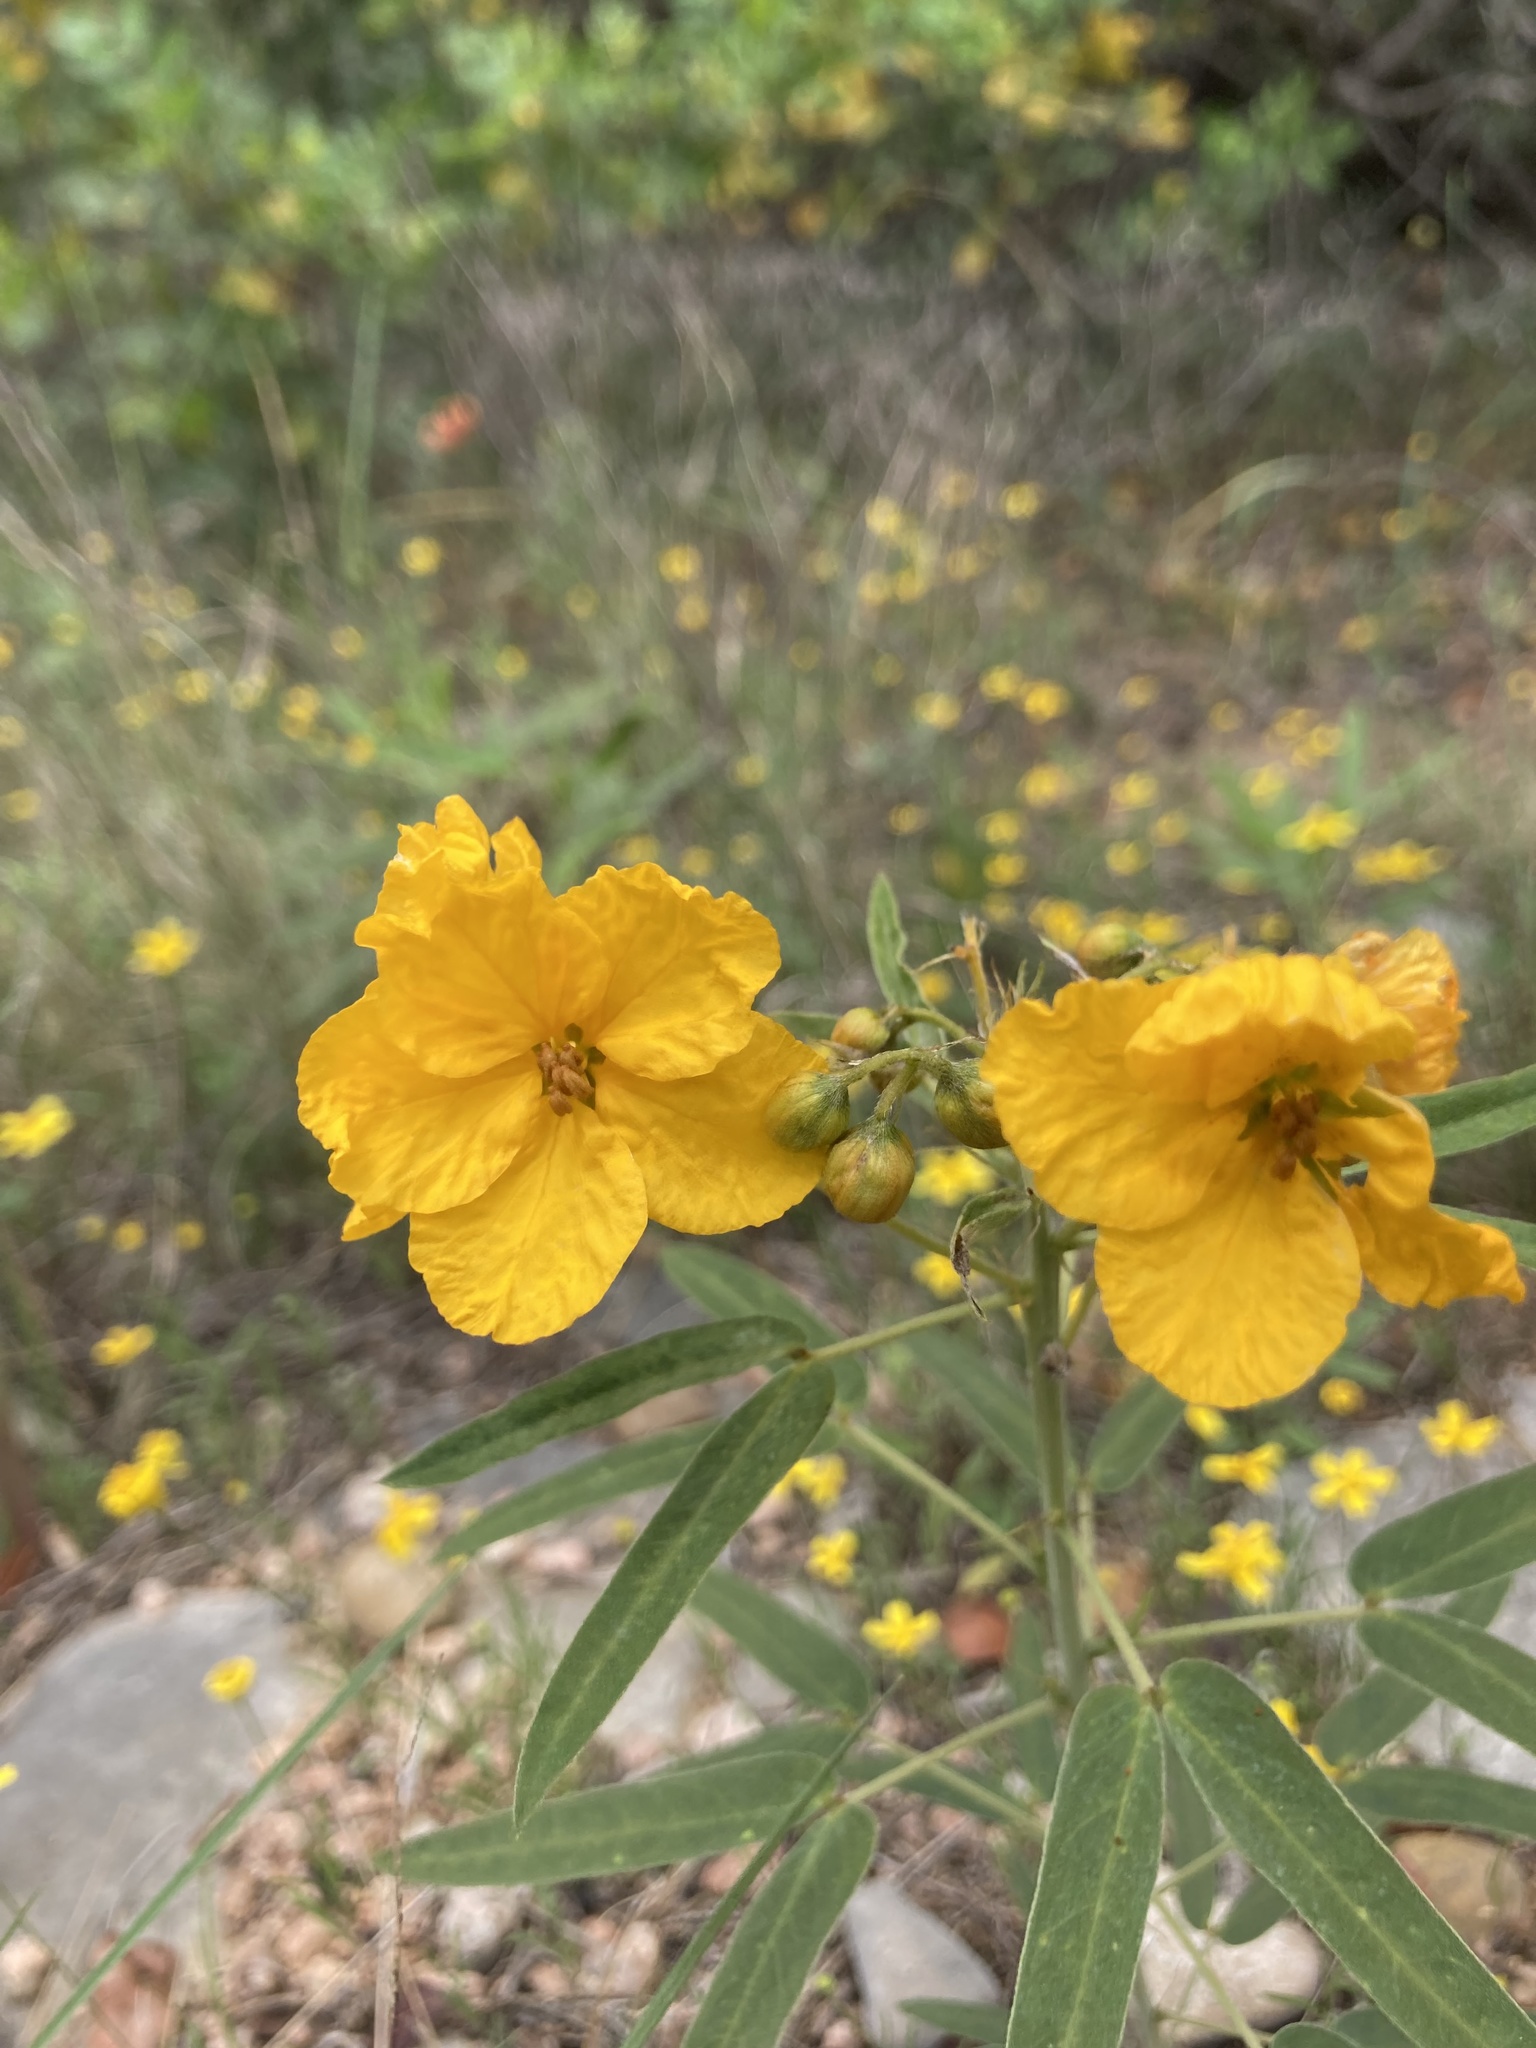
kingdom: Plantae
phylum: Tracheophyta
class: Magnoliopsida
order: Fabales
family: Fabaceae
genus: Senna
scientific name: Senna roemeriana
